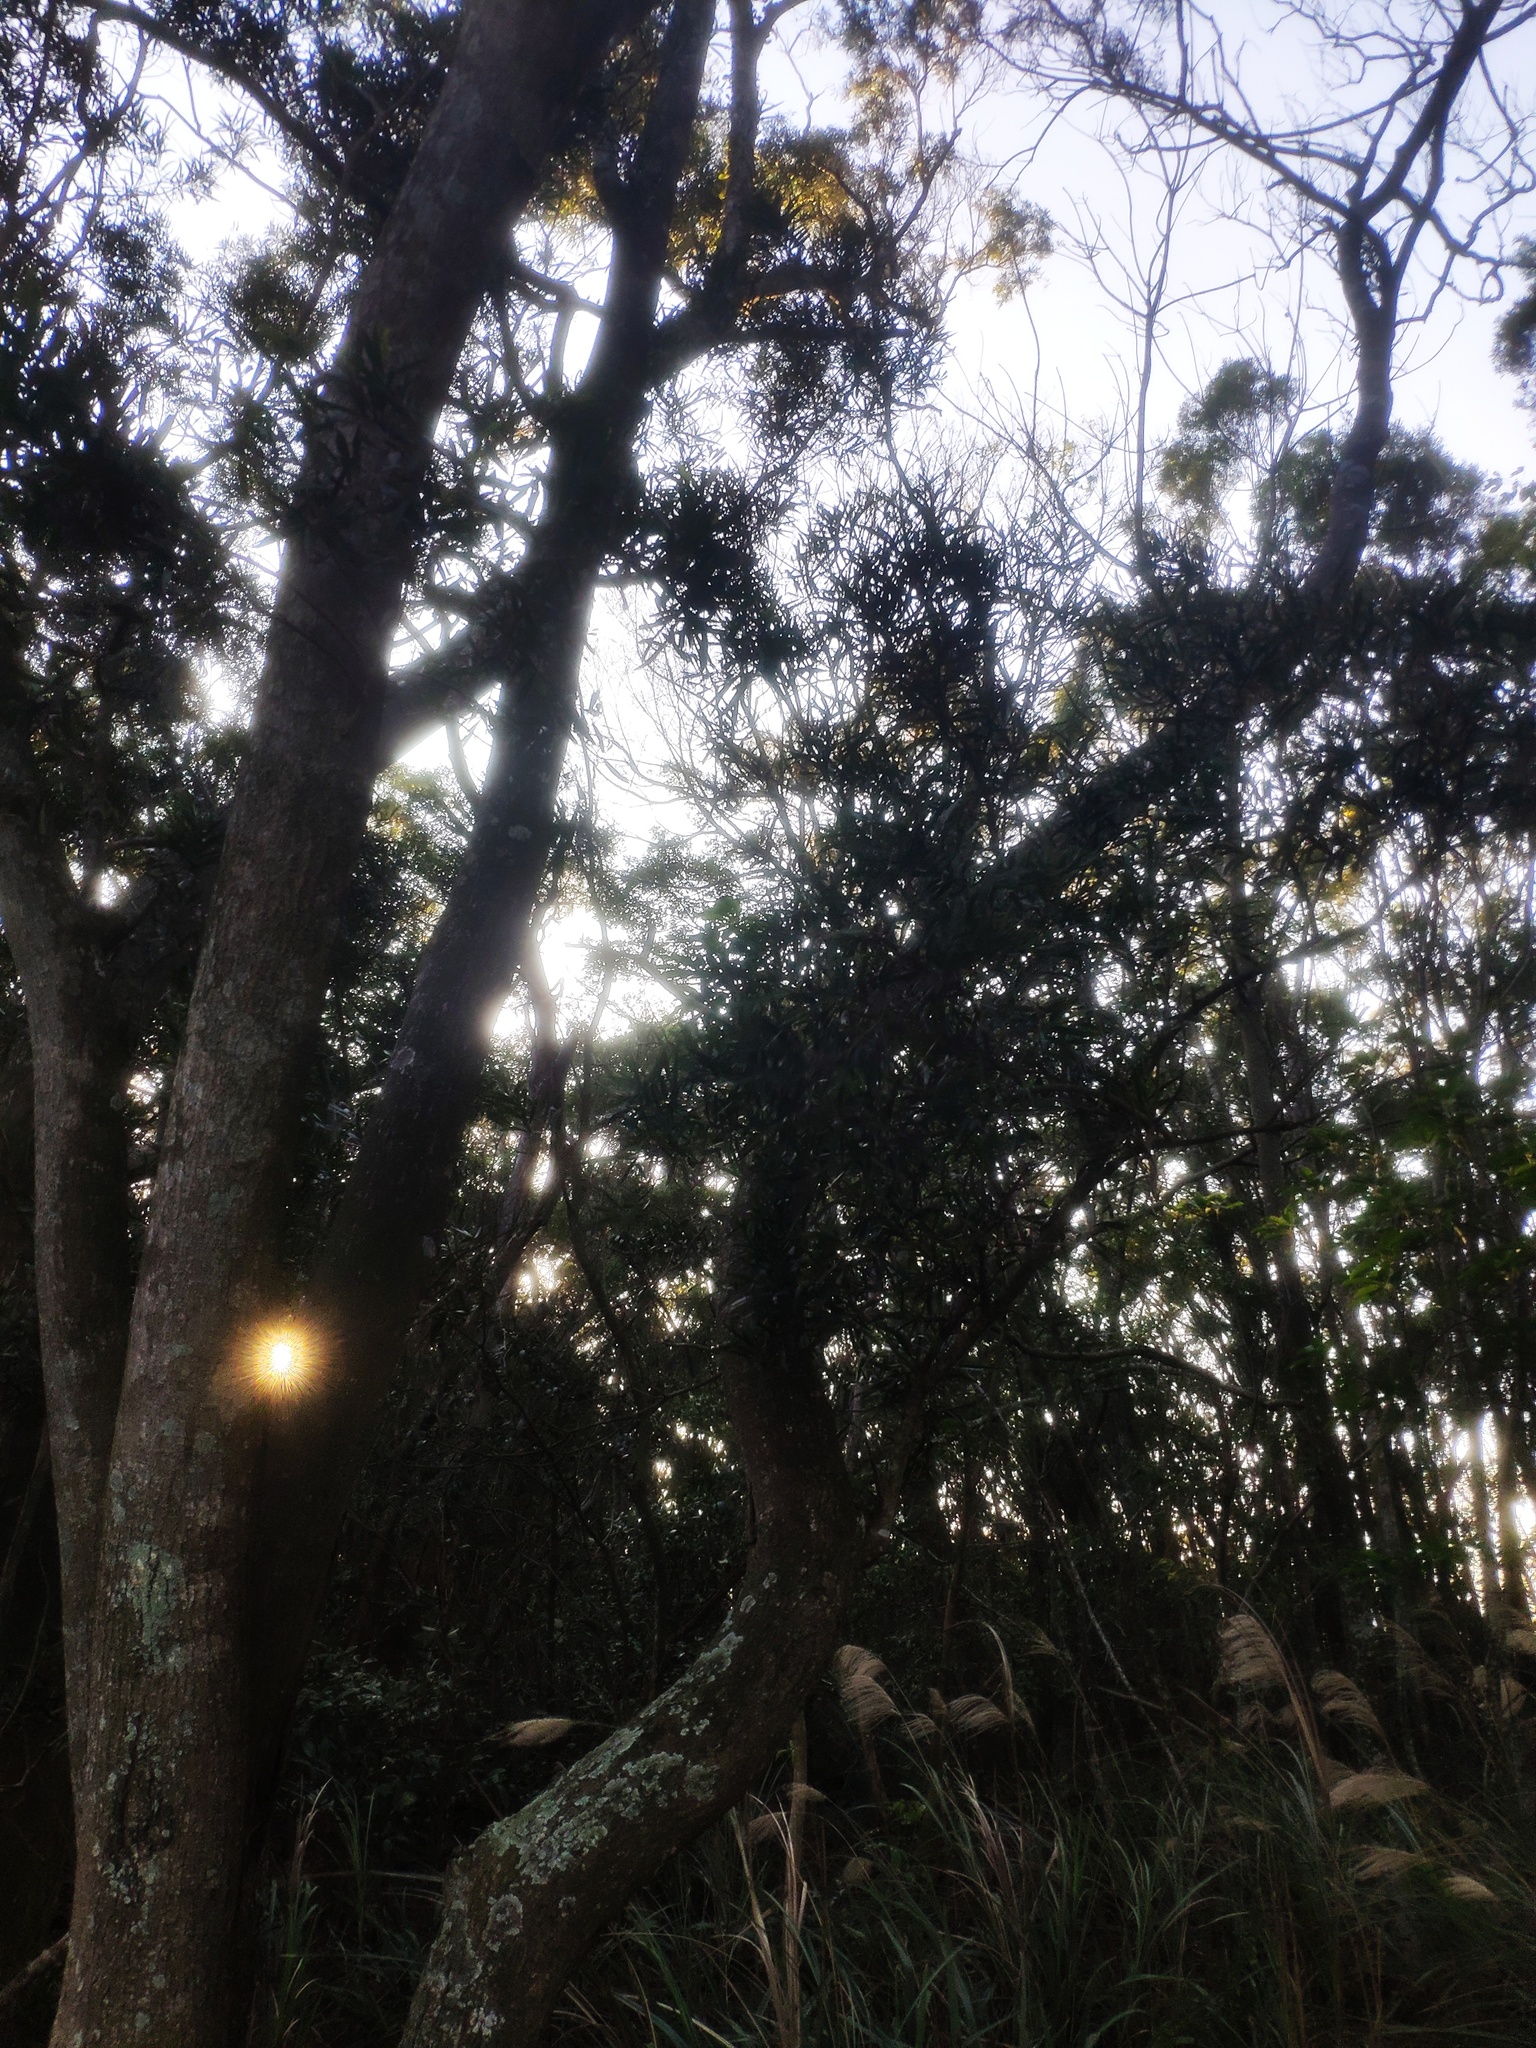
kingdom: Plantae
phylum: Tracheophyta
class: Magnoliopsida
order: Fabales
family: Fabaceae
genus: Acacia
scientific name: Acacia confusa
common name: Formosan koa
